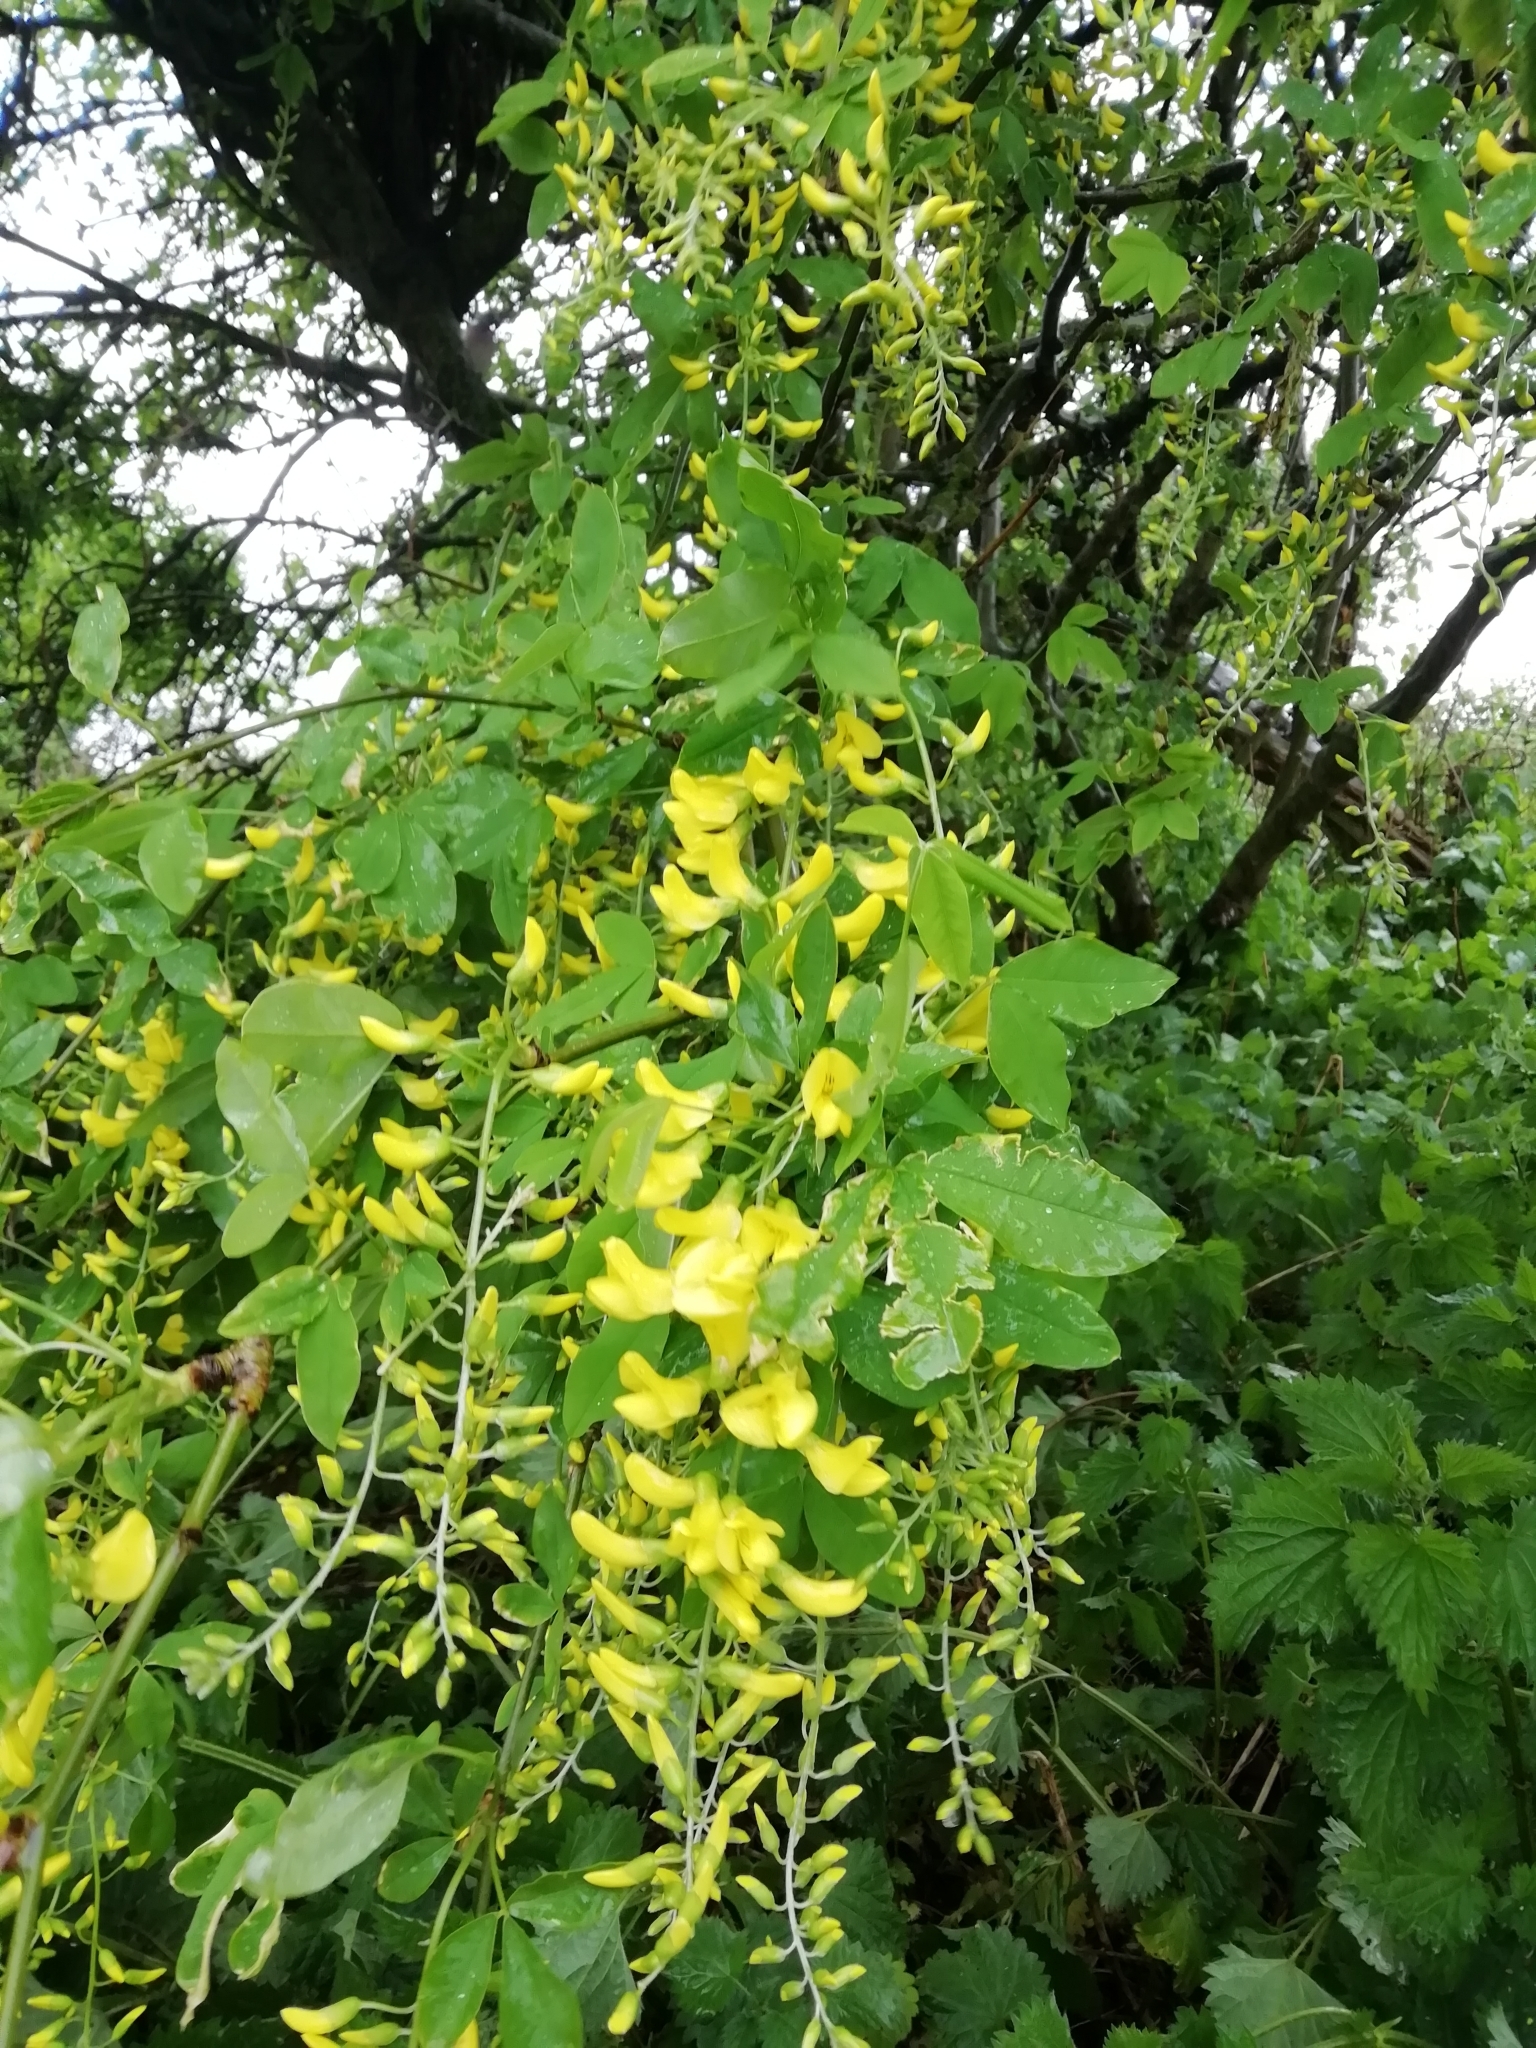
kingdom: Plantae
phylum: Tracheophyta
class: Magnoliopsida
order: Fabales
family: Fabaceae
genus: Laburnum
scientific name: Laburnum anagyroides
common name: Laburnum
